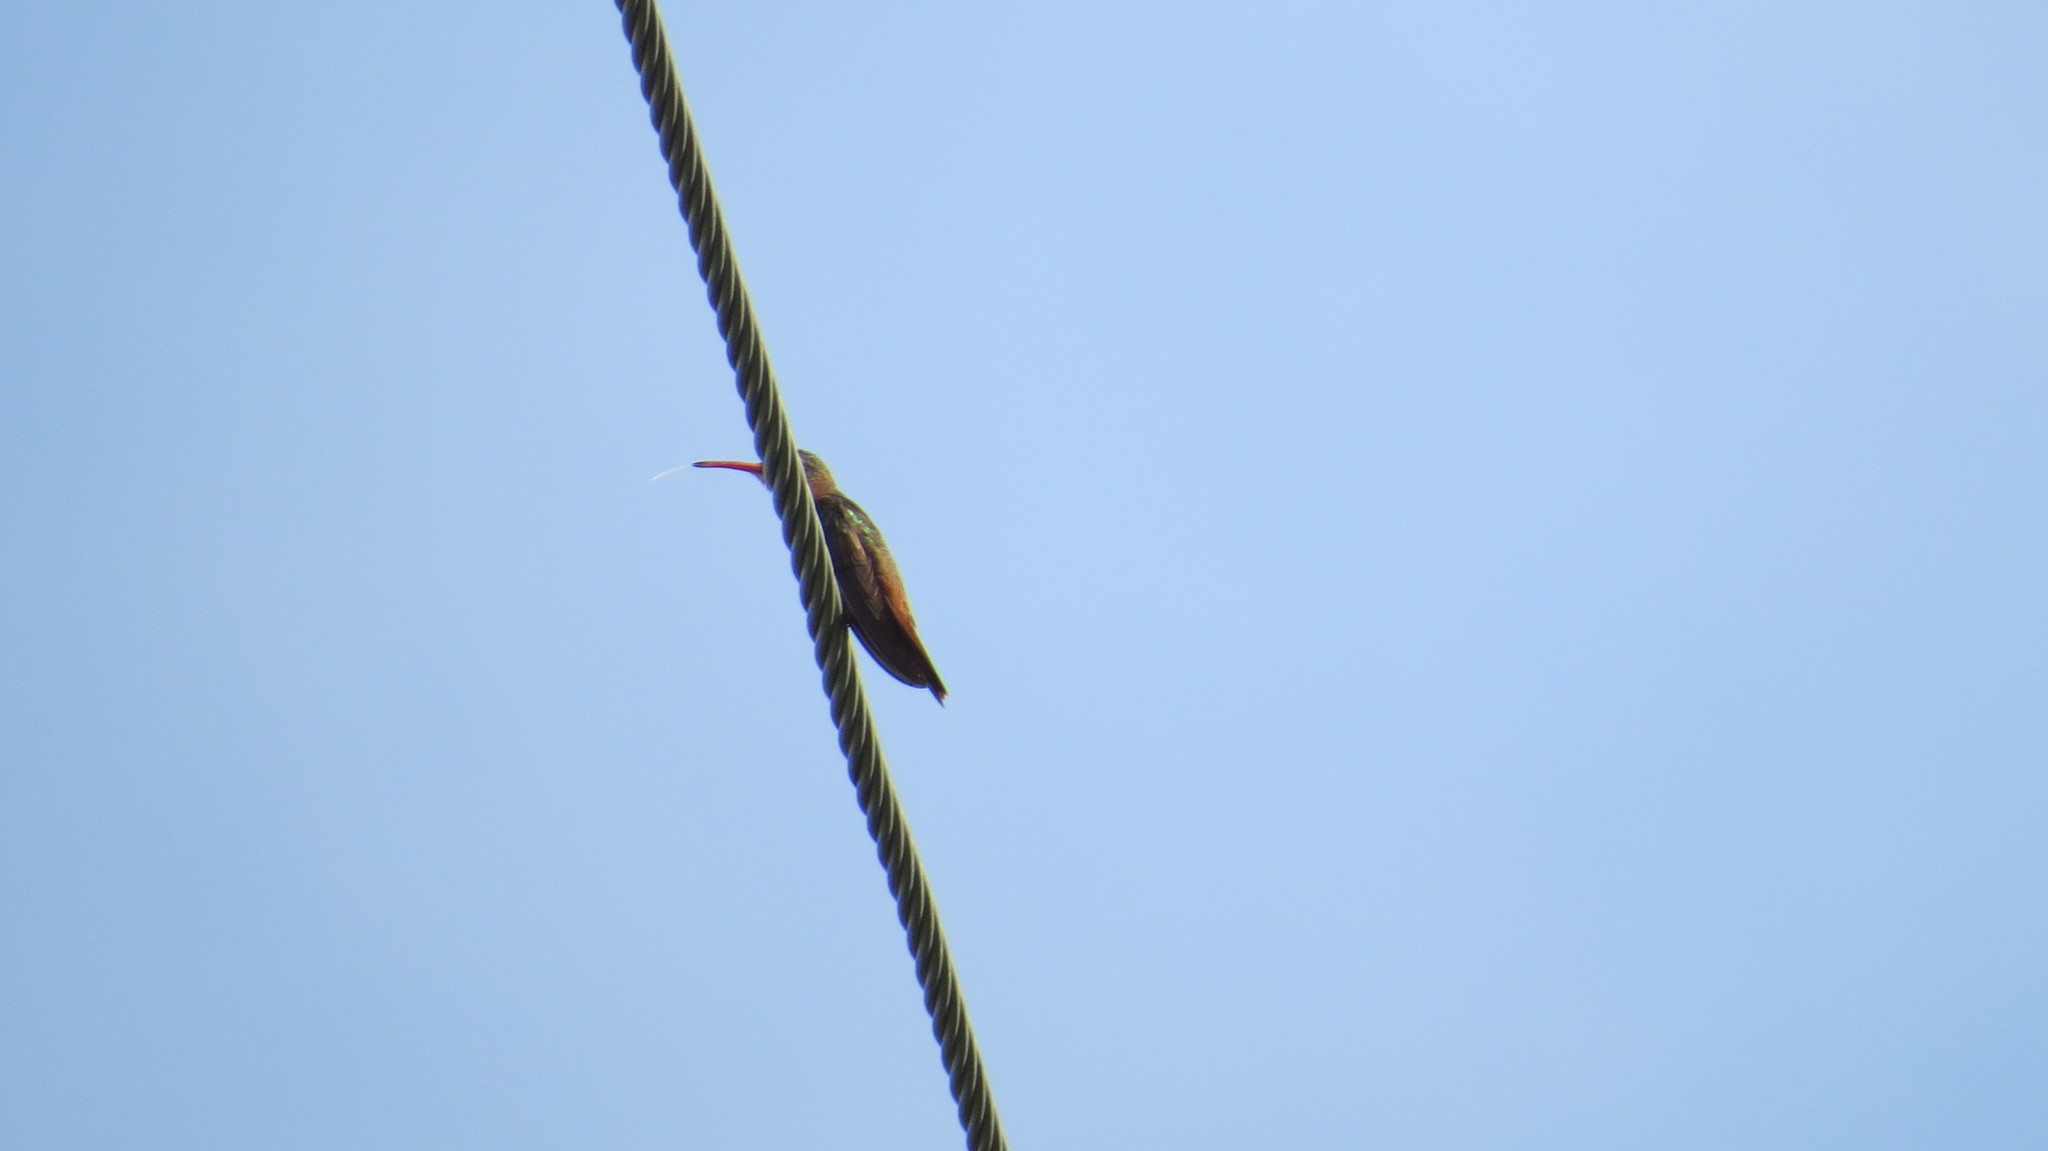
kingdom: Animalia
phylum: Chordata
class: Aves
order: Apodiformes
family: Trochilidae
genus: Amazilia
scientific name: Amazilia rutila
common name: Cinnamon hummingbird
